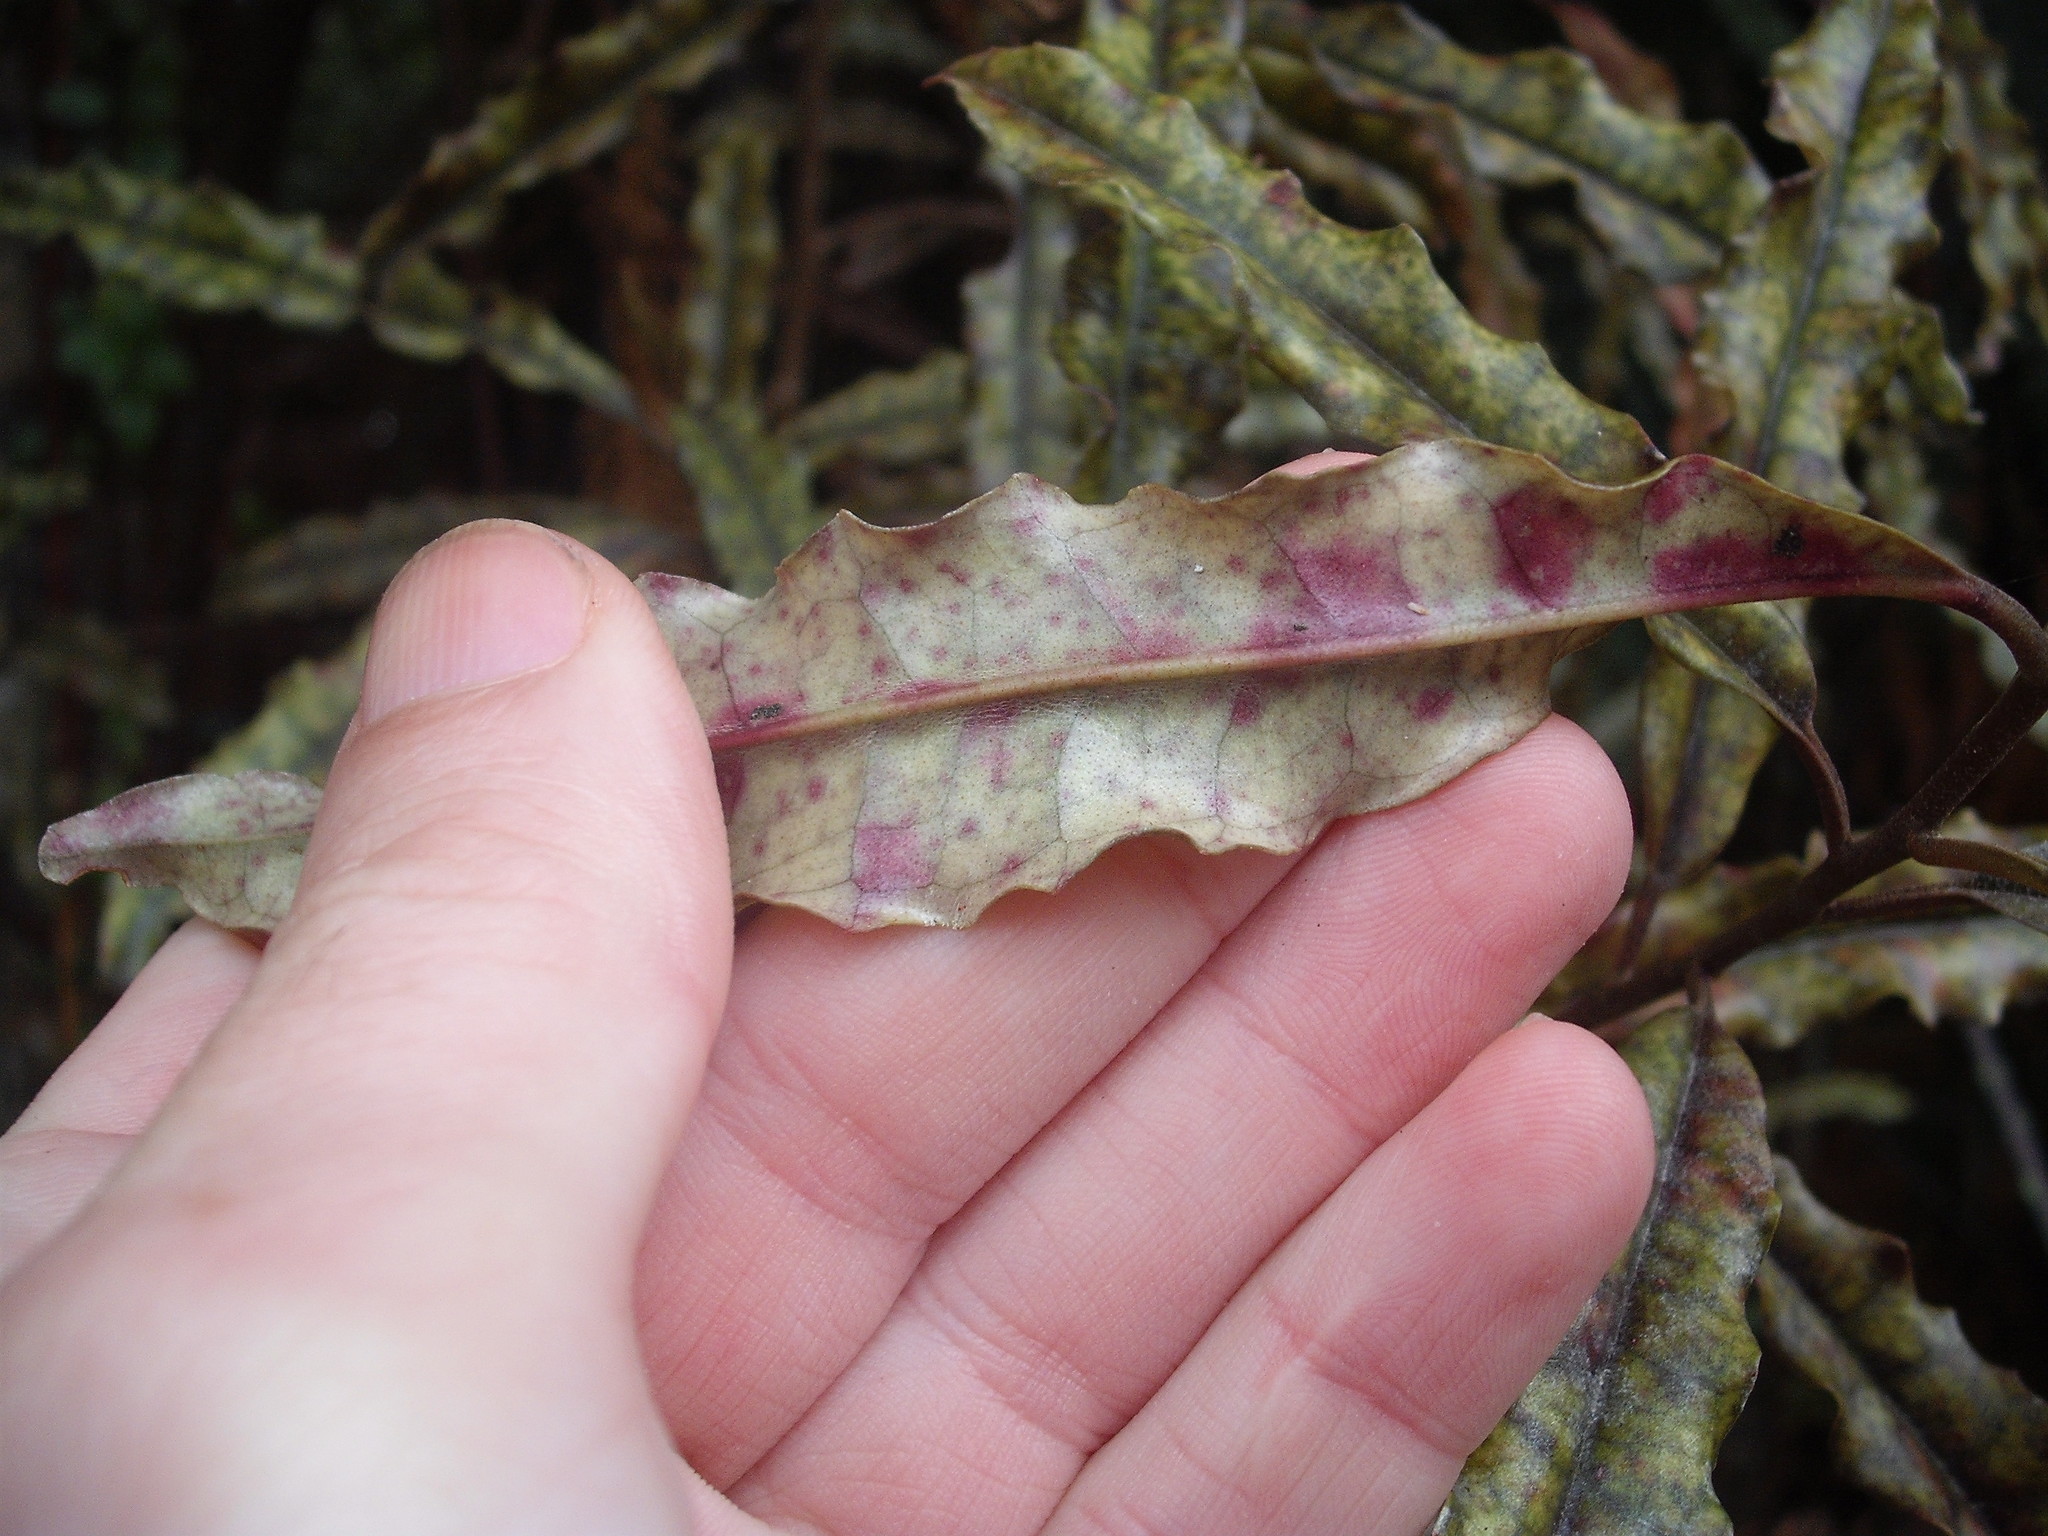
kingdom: Plantae
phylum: Tracheophyta
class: Magnoliopsida
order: Paracryphiales
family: Paracryphiaceae
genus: Quintinia
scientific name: Quintinia serrata
